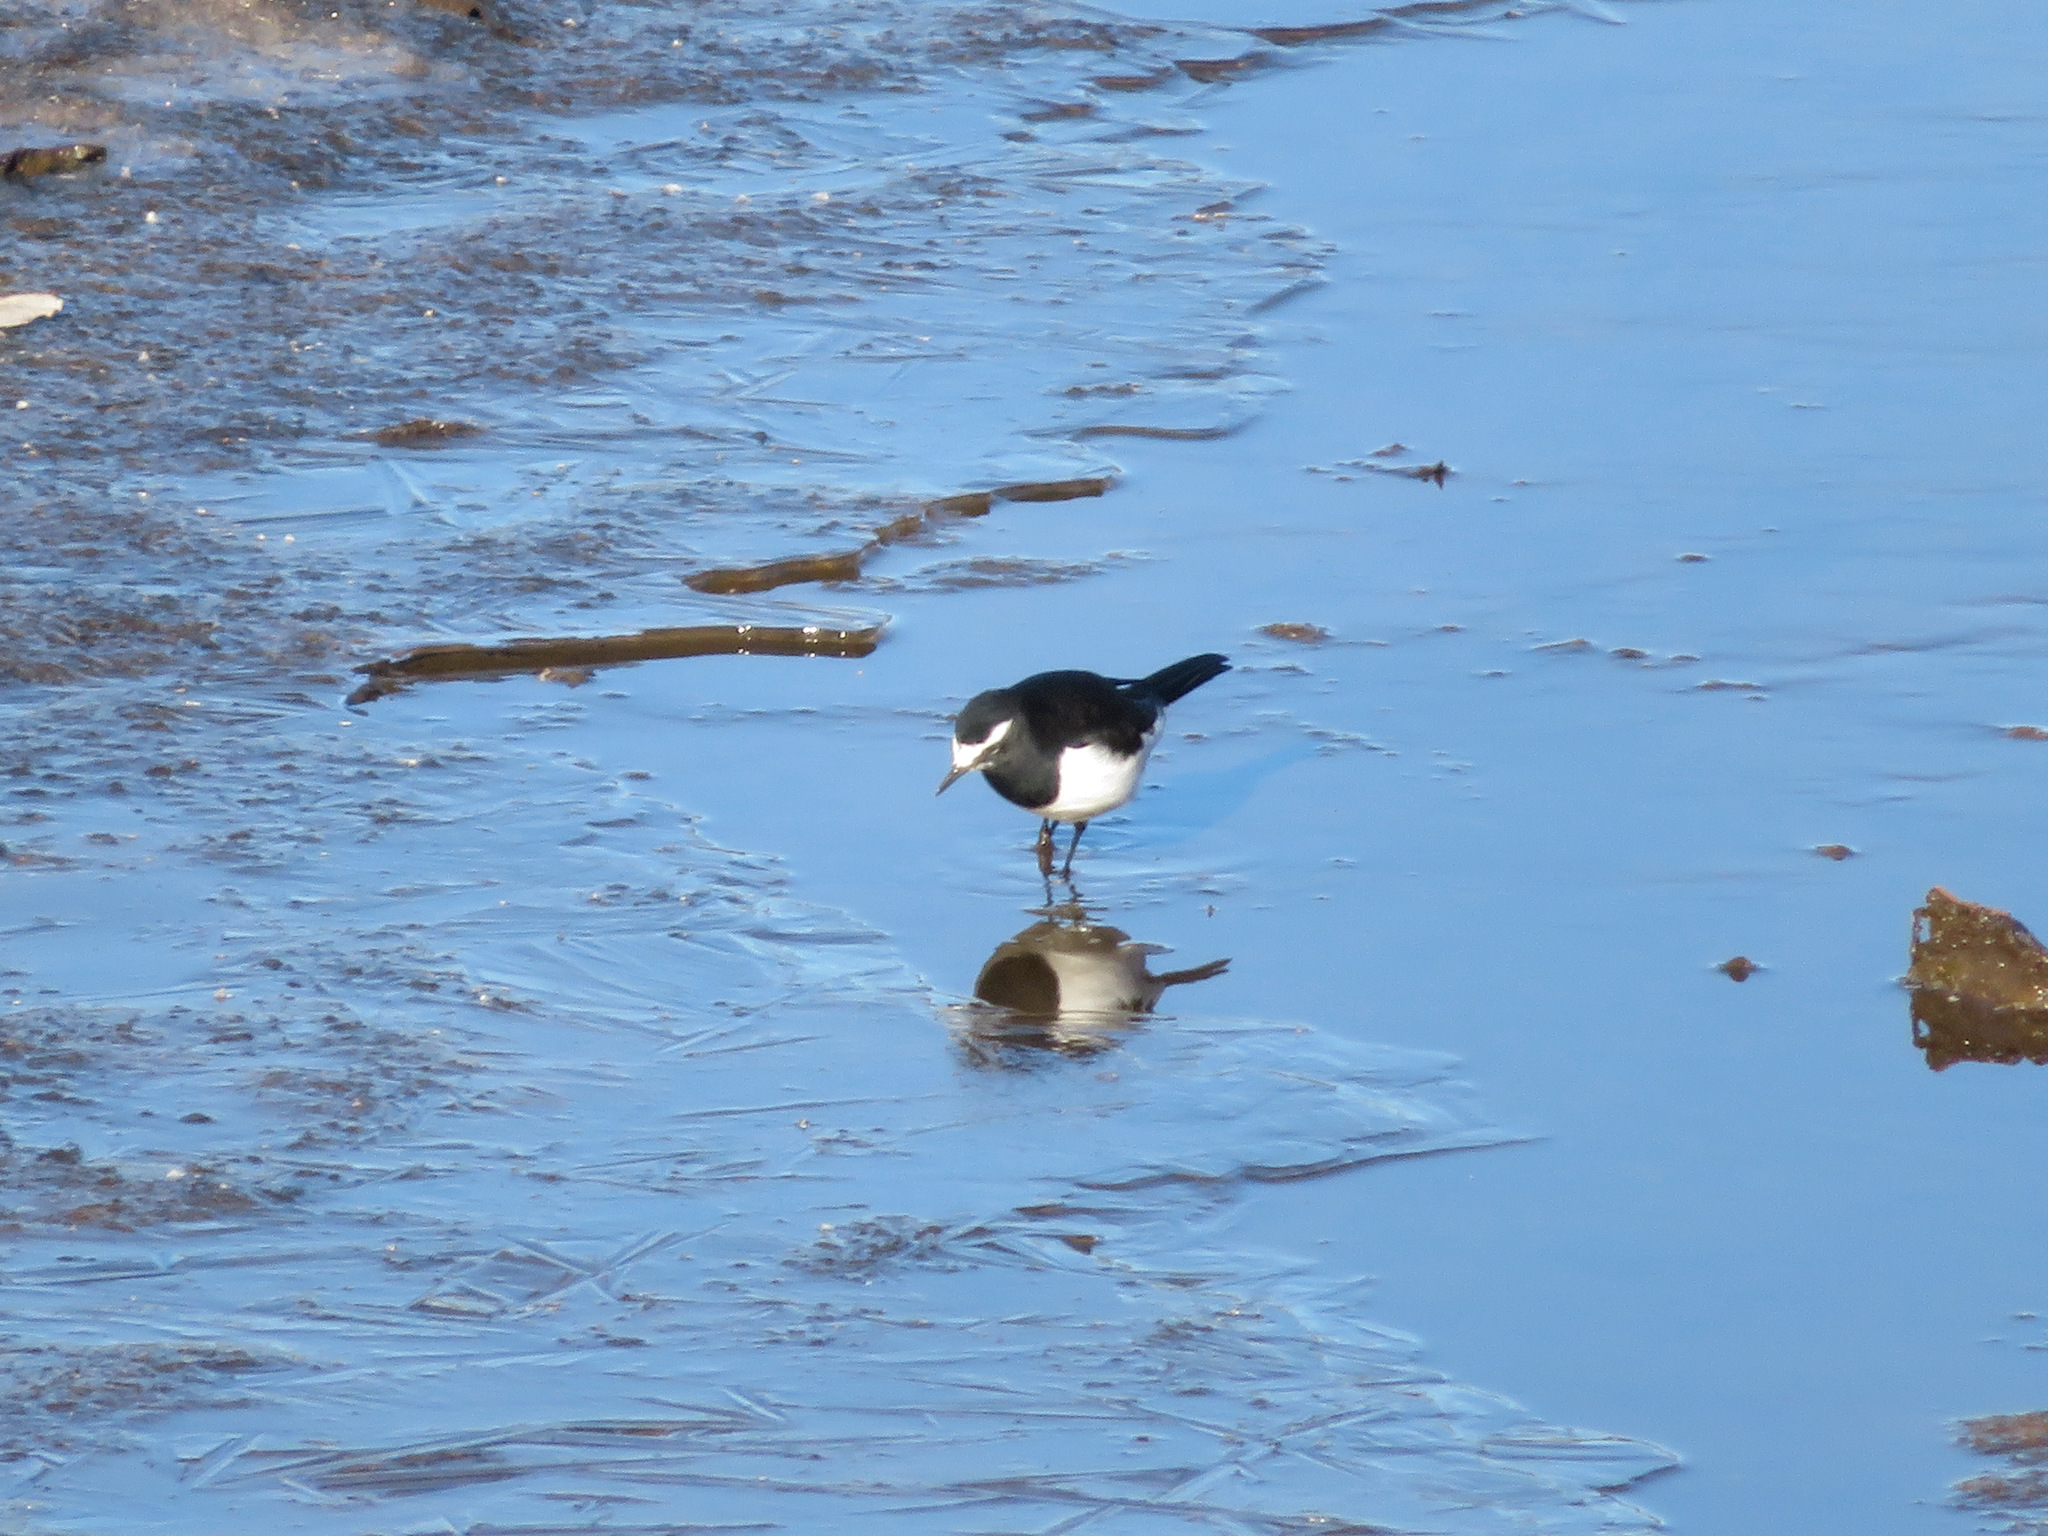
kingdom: Animalia
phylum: Chordata
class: Aves
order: Passeriformes
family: Motacillidae
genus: Motacilla
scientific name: Motacilla grandis
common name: Japanese wagtail
